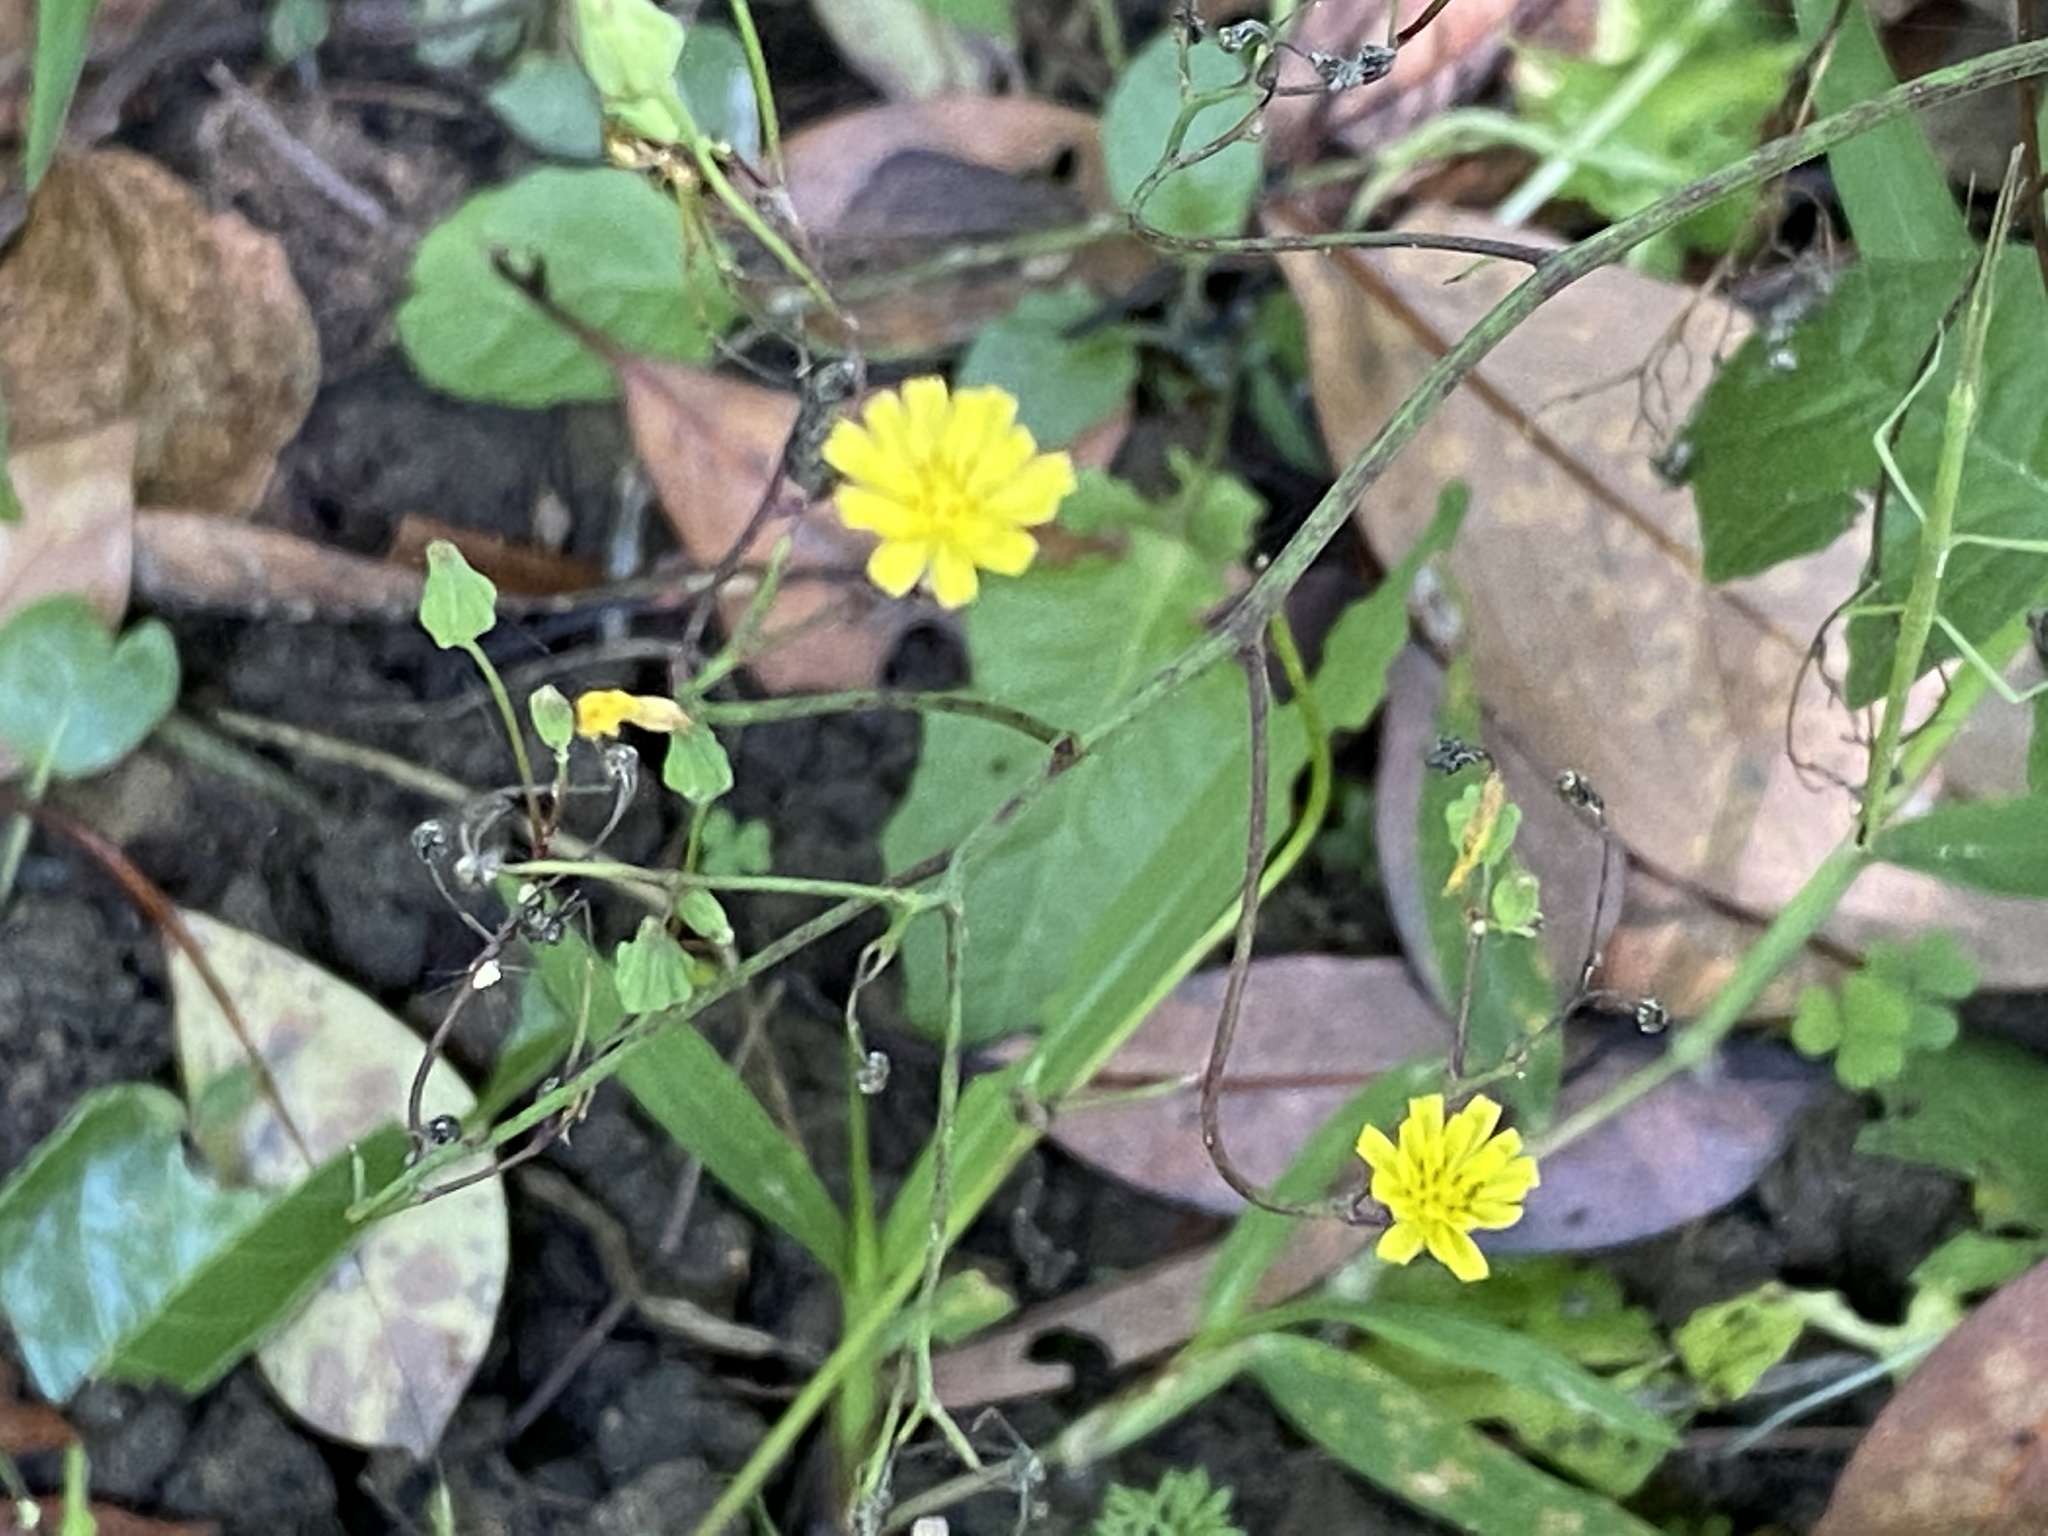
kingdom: Plantae
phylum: Tracheophyta
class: Magnoliopsida
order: Asterales
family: Asteraceae
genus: Youngia
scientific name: Youngia japonica
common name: Oriental false hawksbeard
